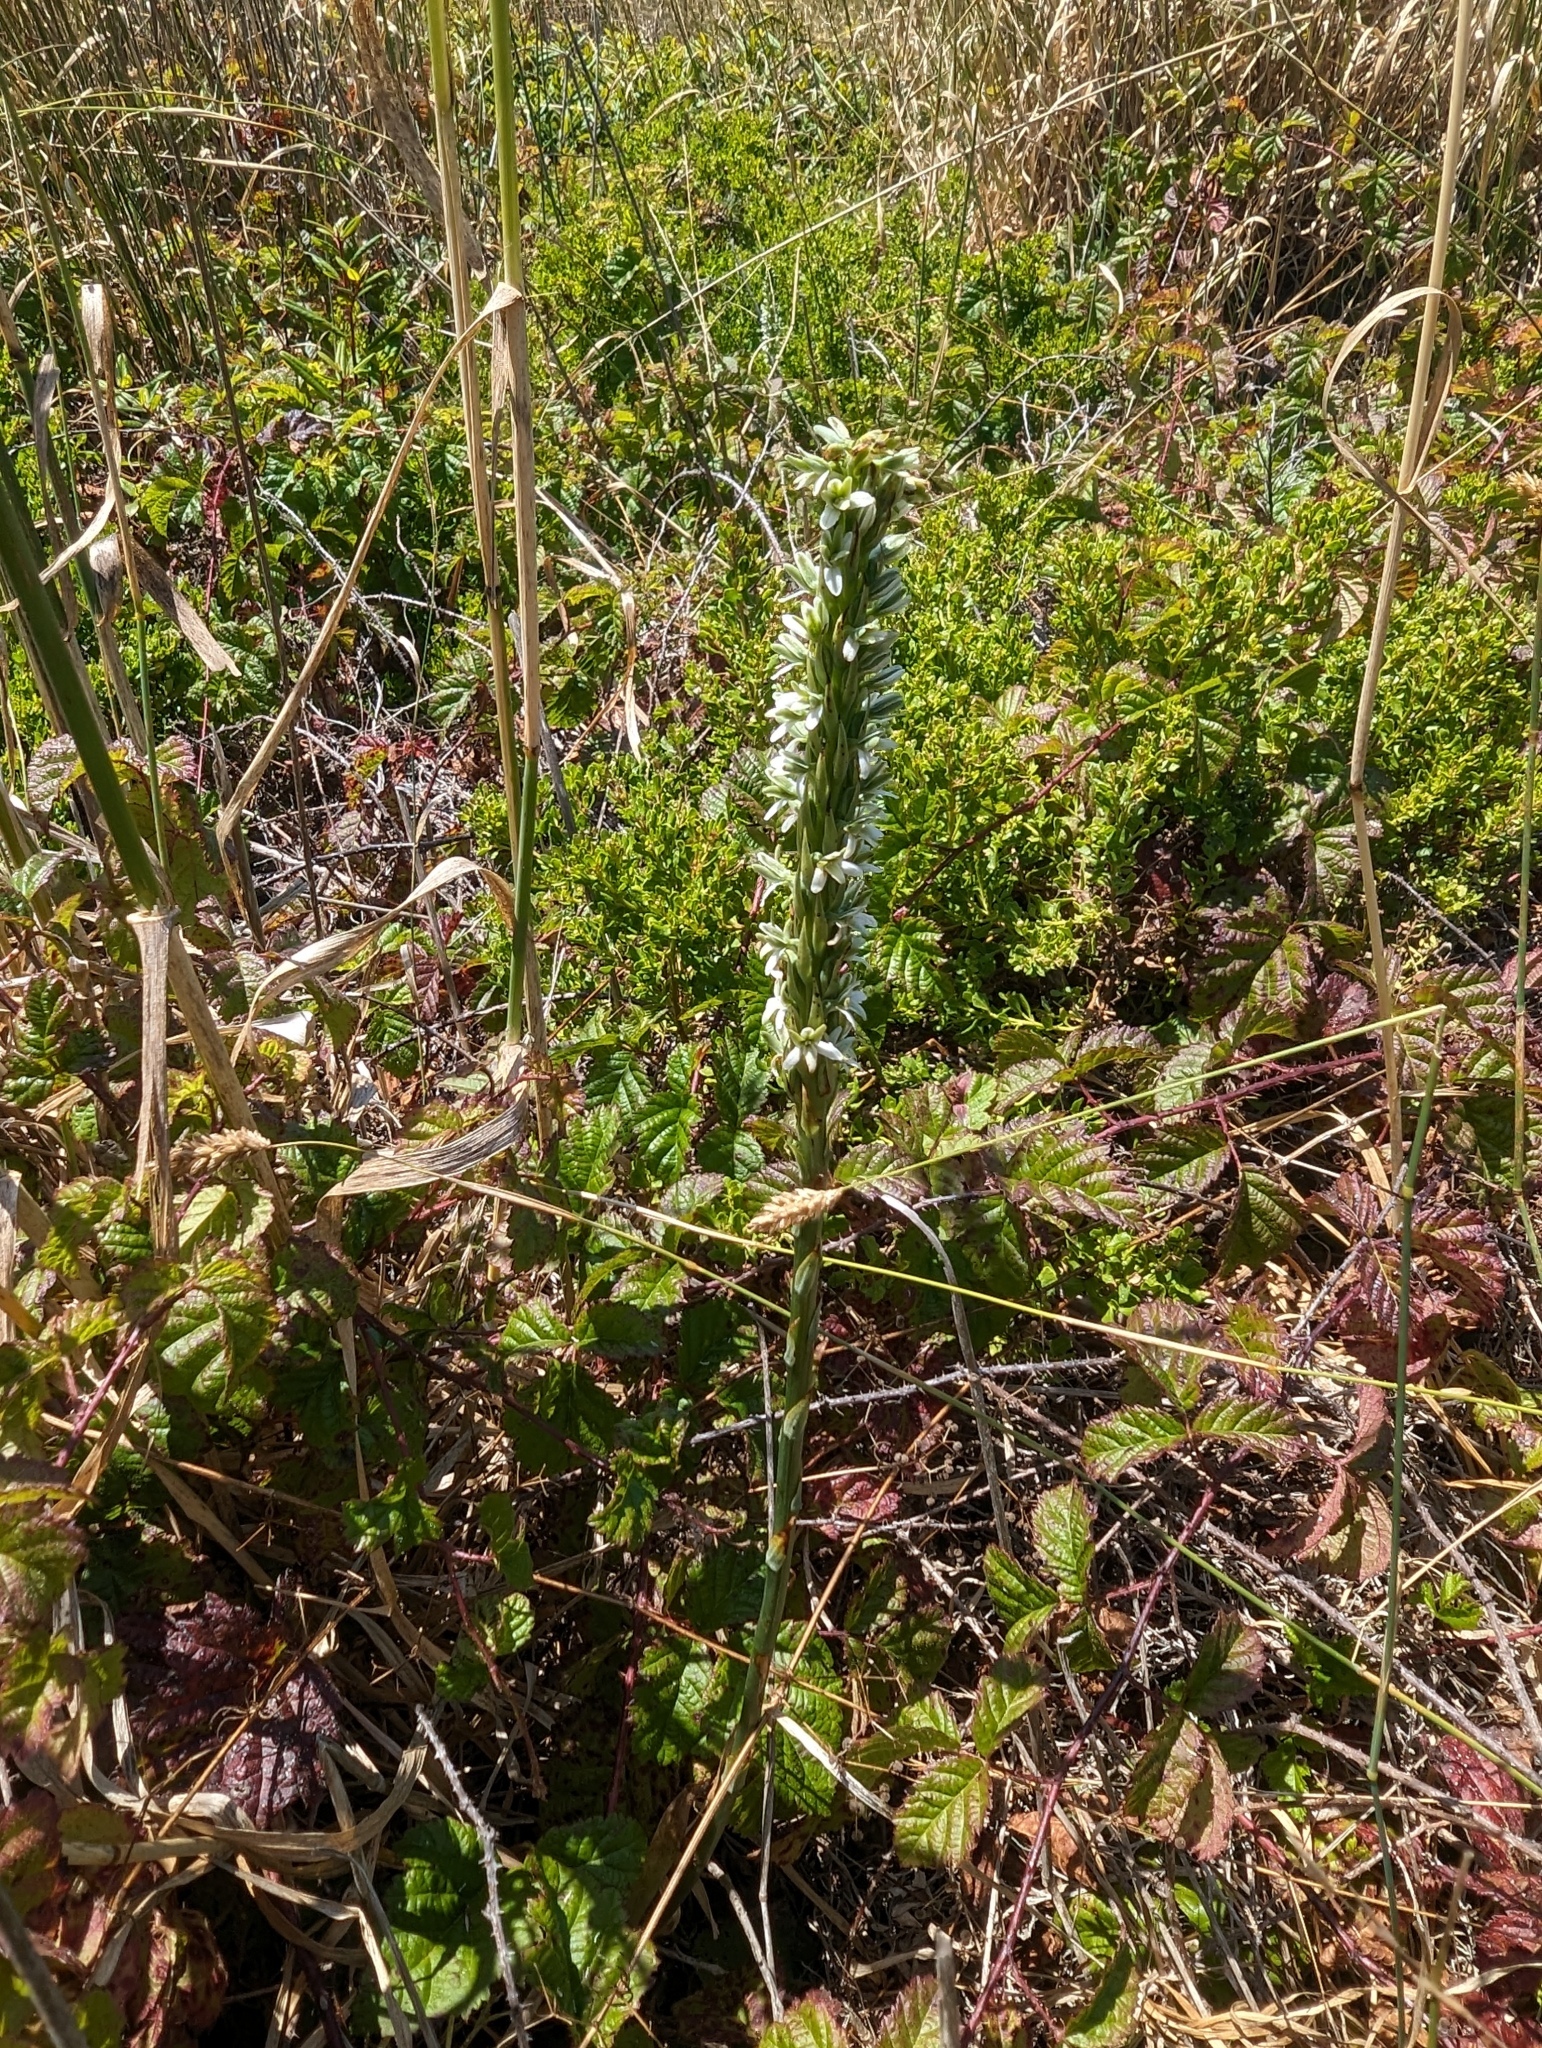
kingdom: Plantae
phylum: Tracheophyta
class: Liliopsida
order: Asparagales
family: Orchidaceae
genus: Platanthera
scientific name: Platanthera elegans
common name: Coast piperia
